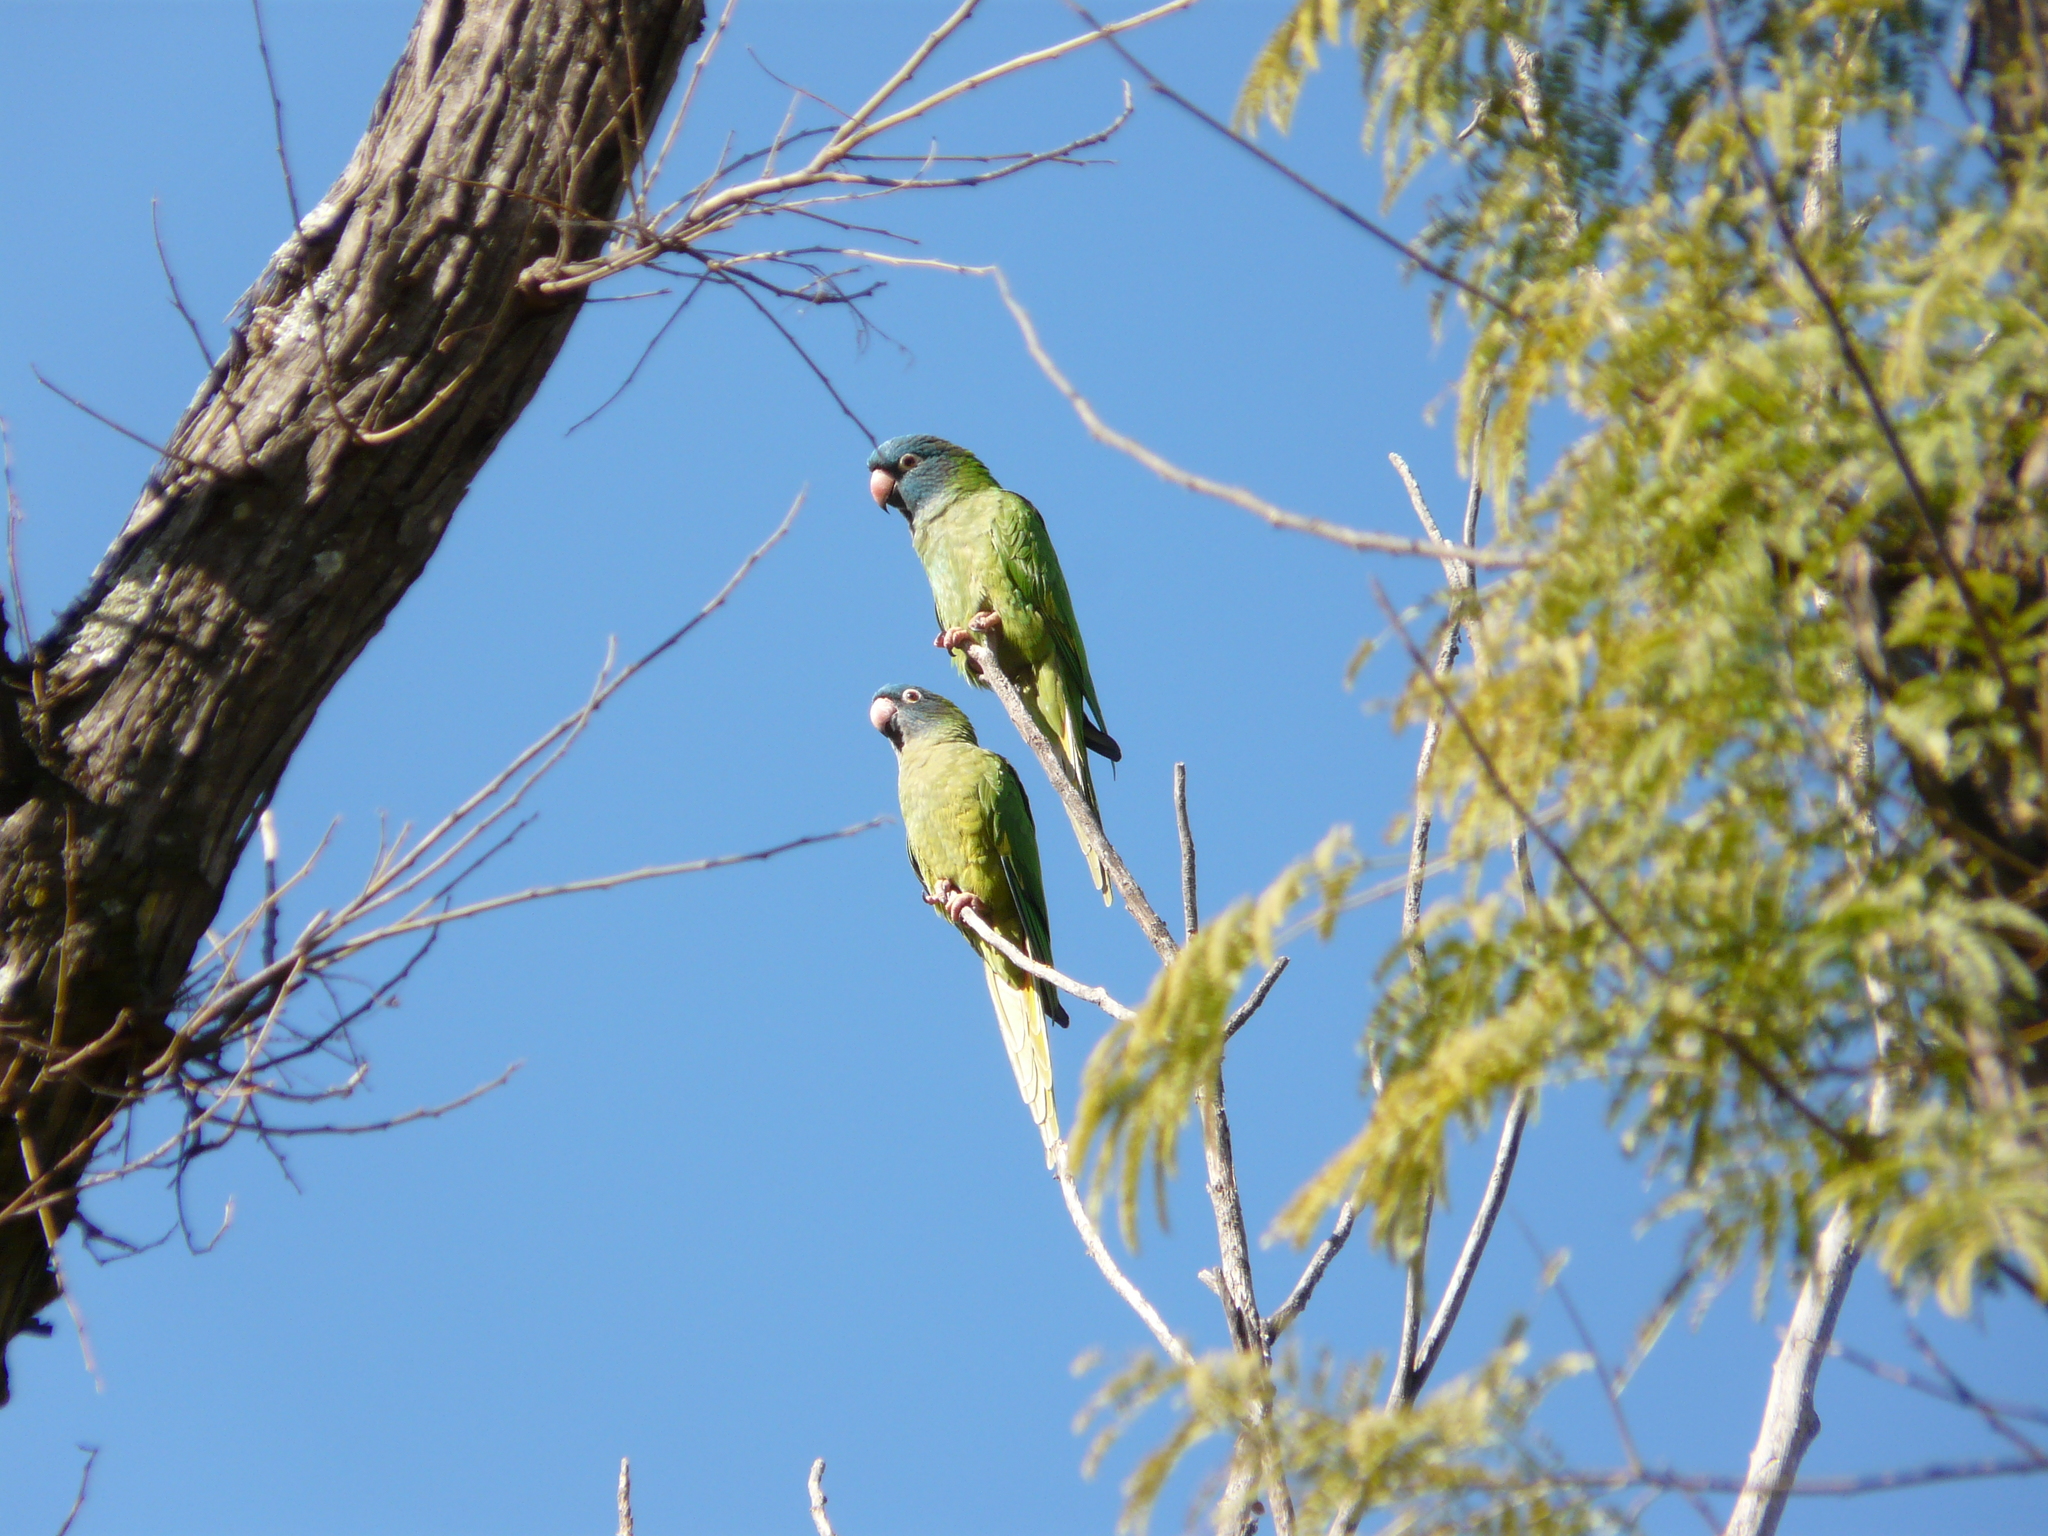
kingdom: Animalia
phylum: Chordata
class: Aves
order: Psittaciformes
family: Psittacidae
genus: Aratinga
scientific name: Aratinga acuticaudata
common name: Blue-crowned parakeet
